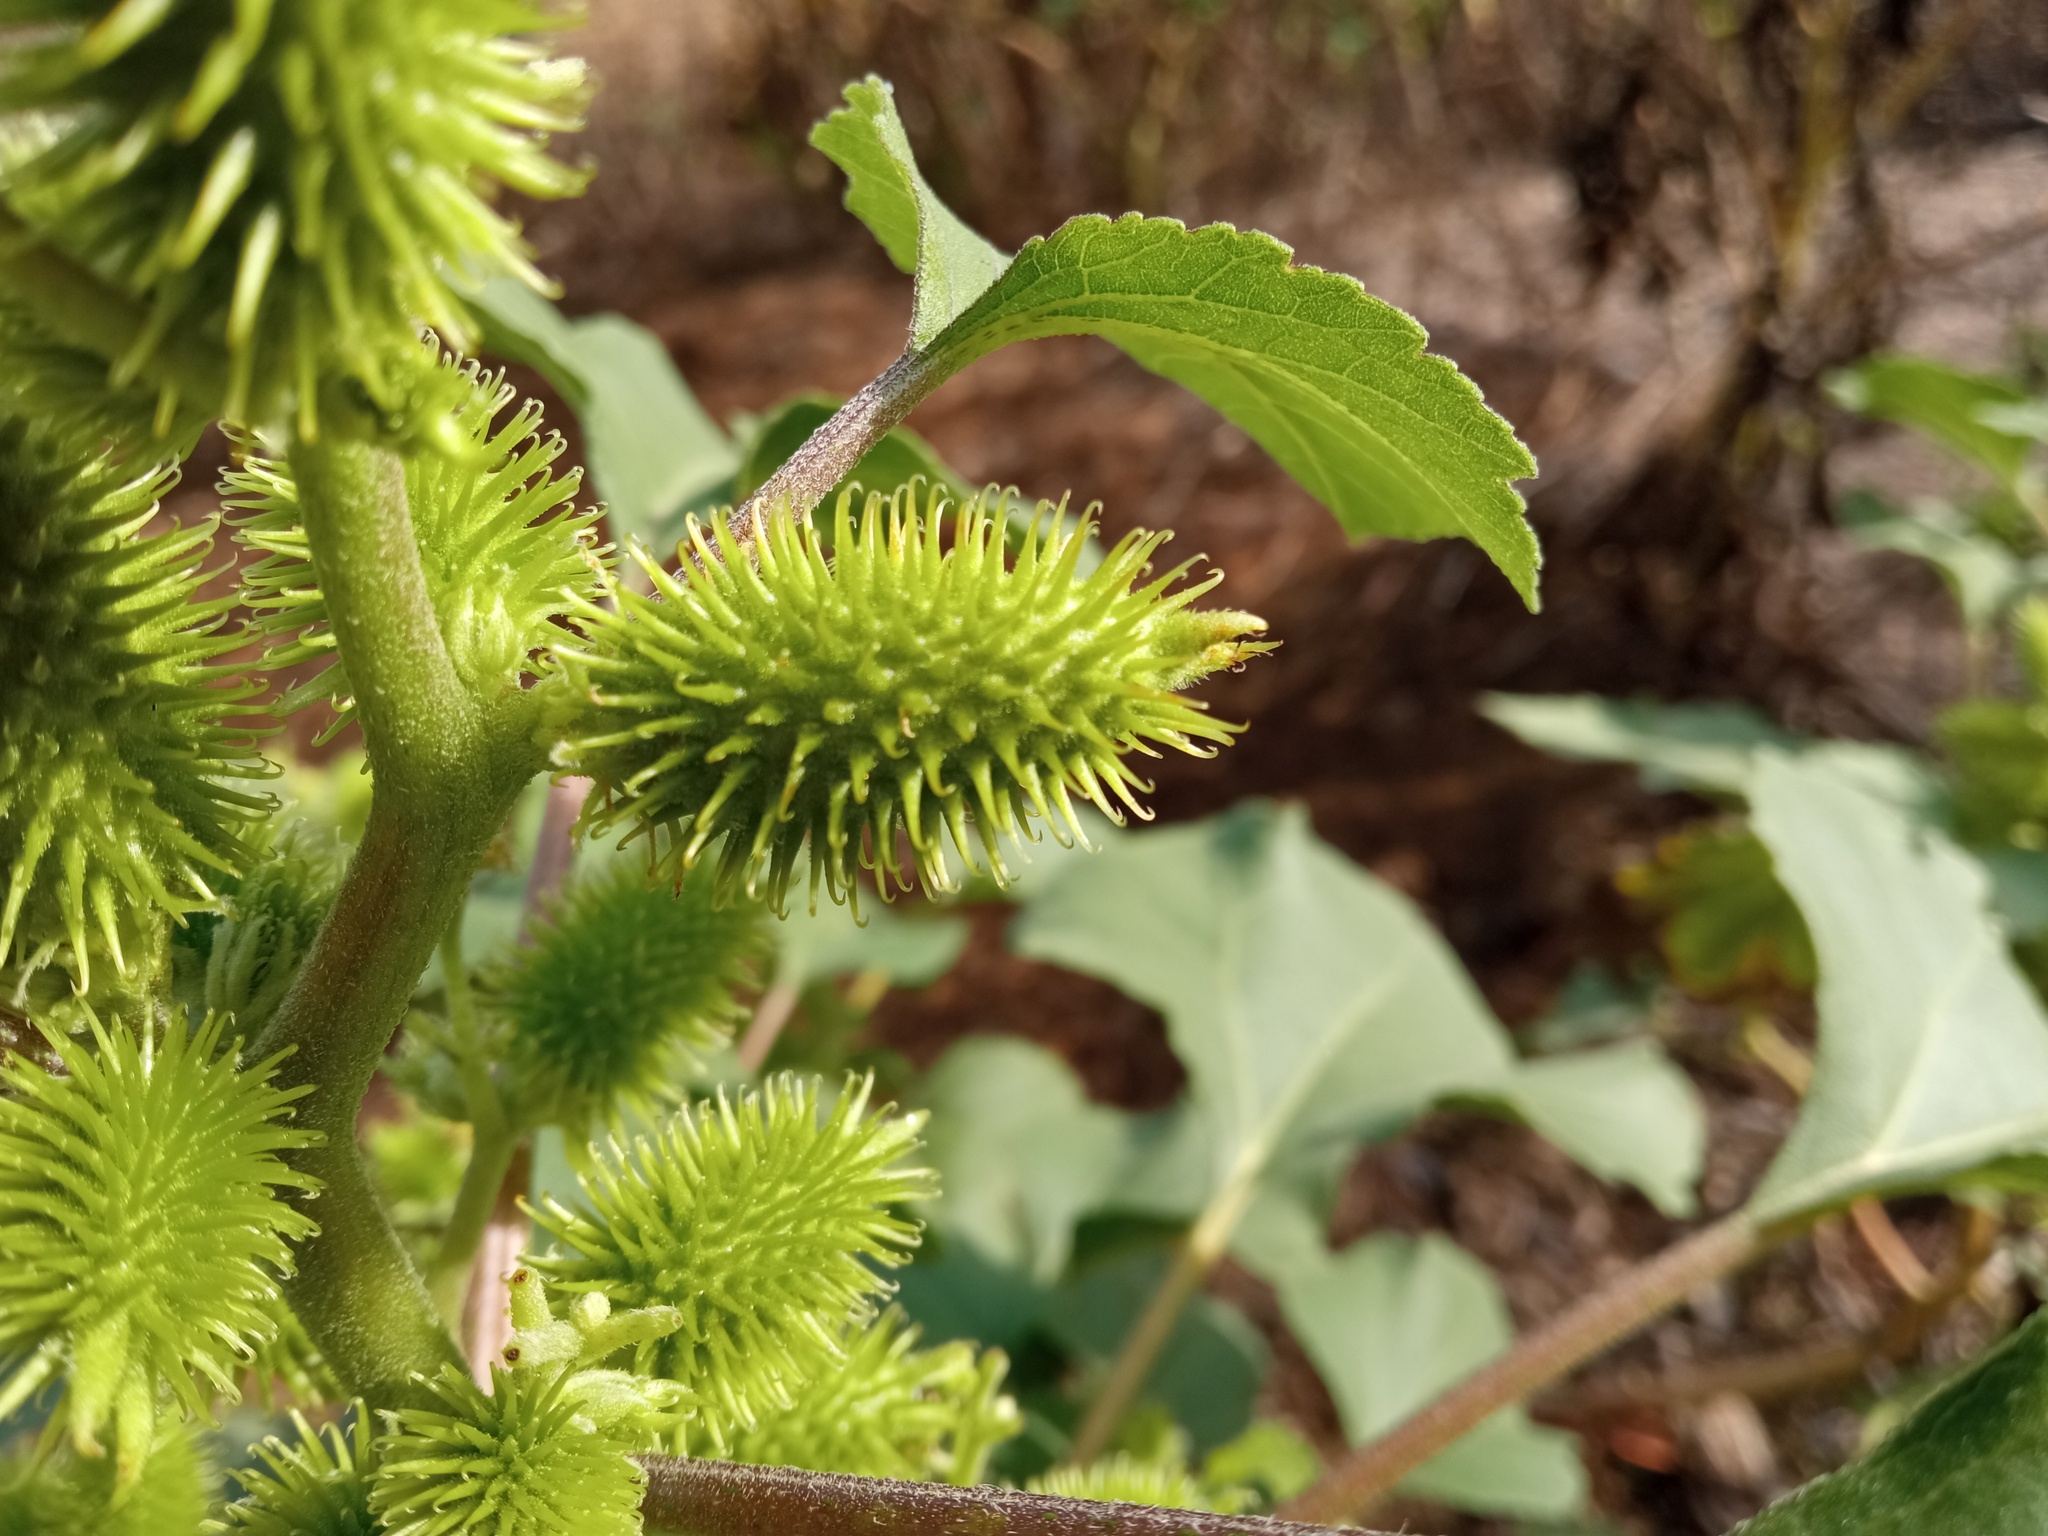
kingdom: Plantae
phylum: Tracheophyta
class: Magnoliopsida
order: Asterales
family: Asteraceae
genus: Xanthium
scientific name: Xanthium orientale
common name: Californian burr
